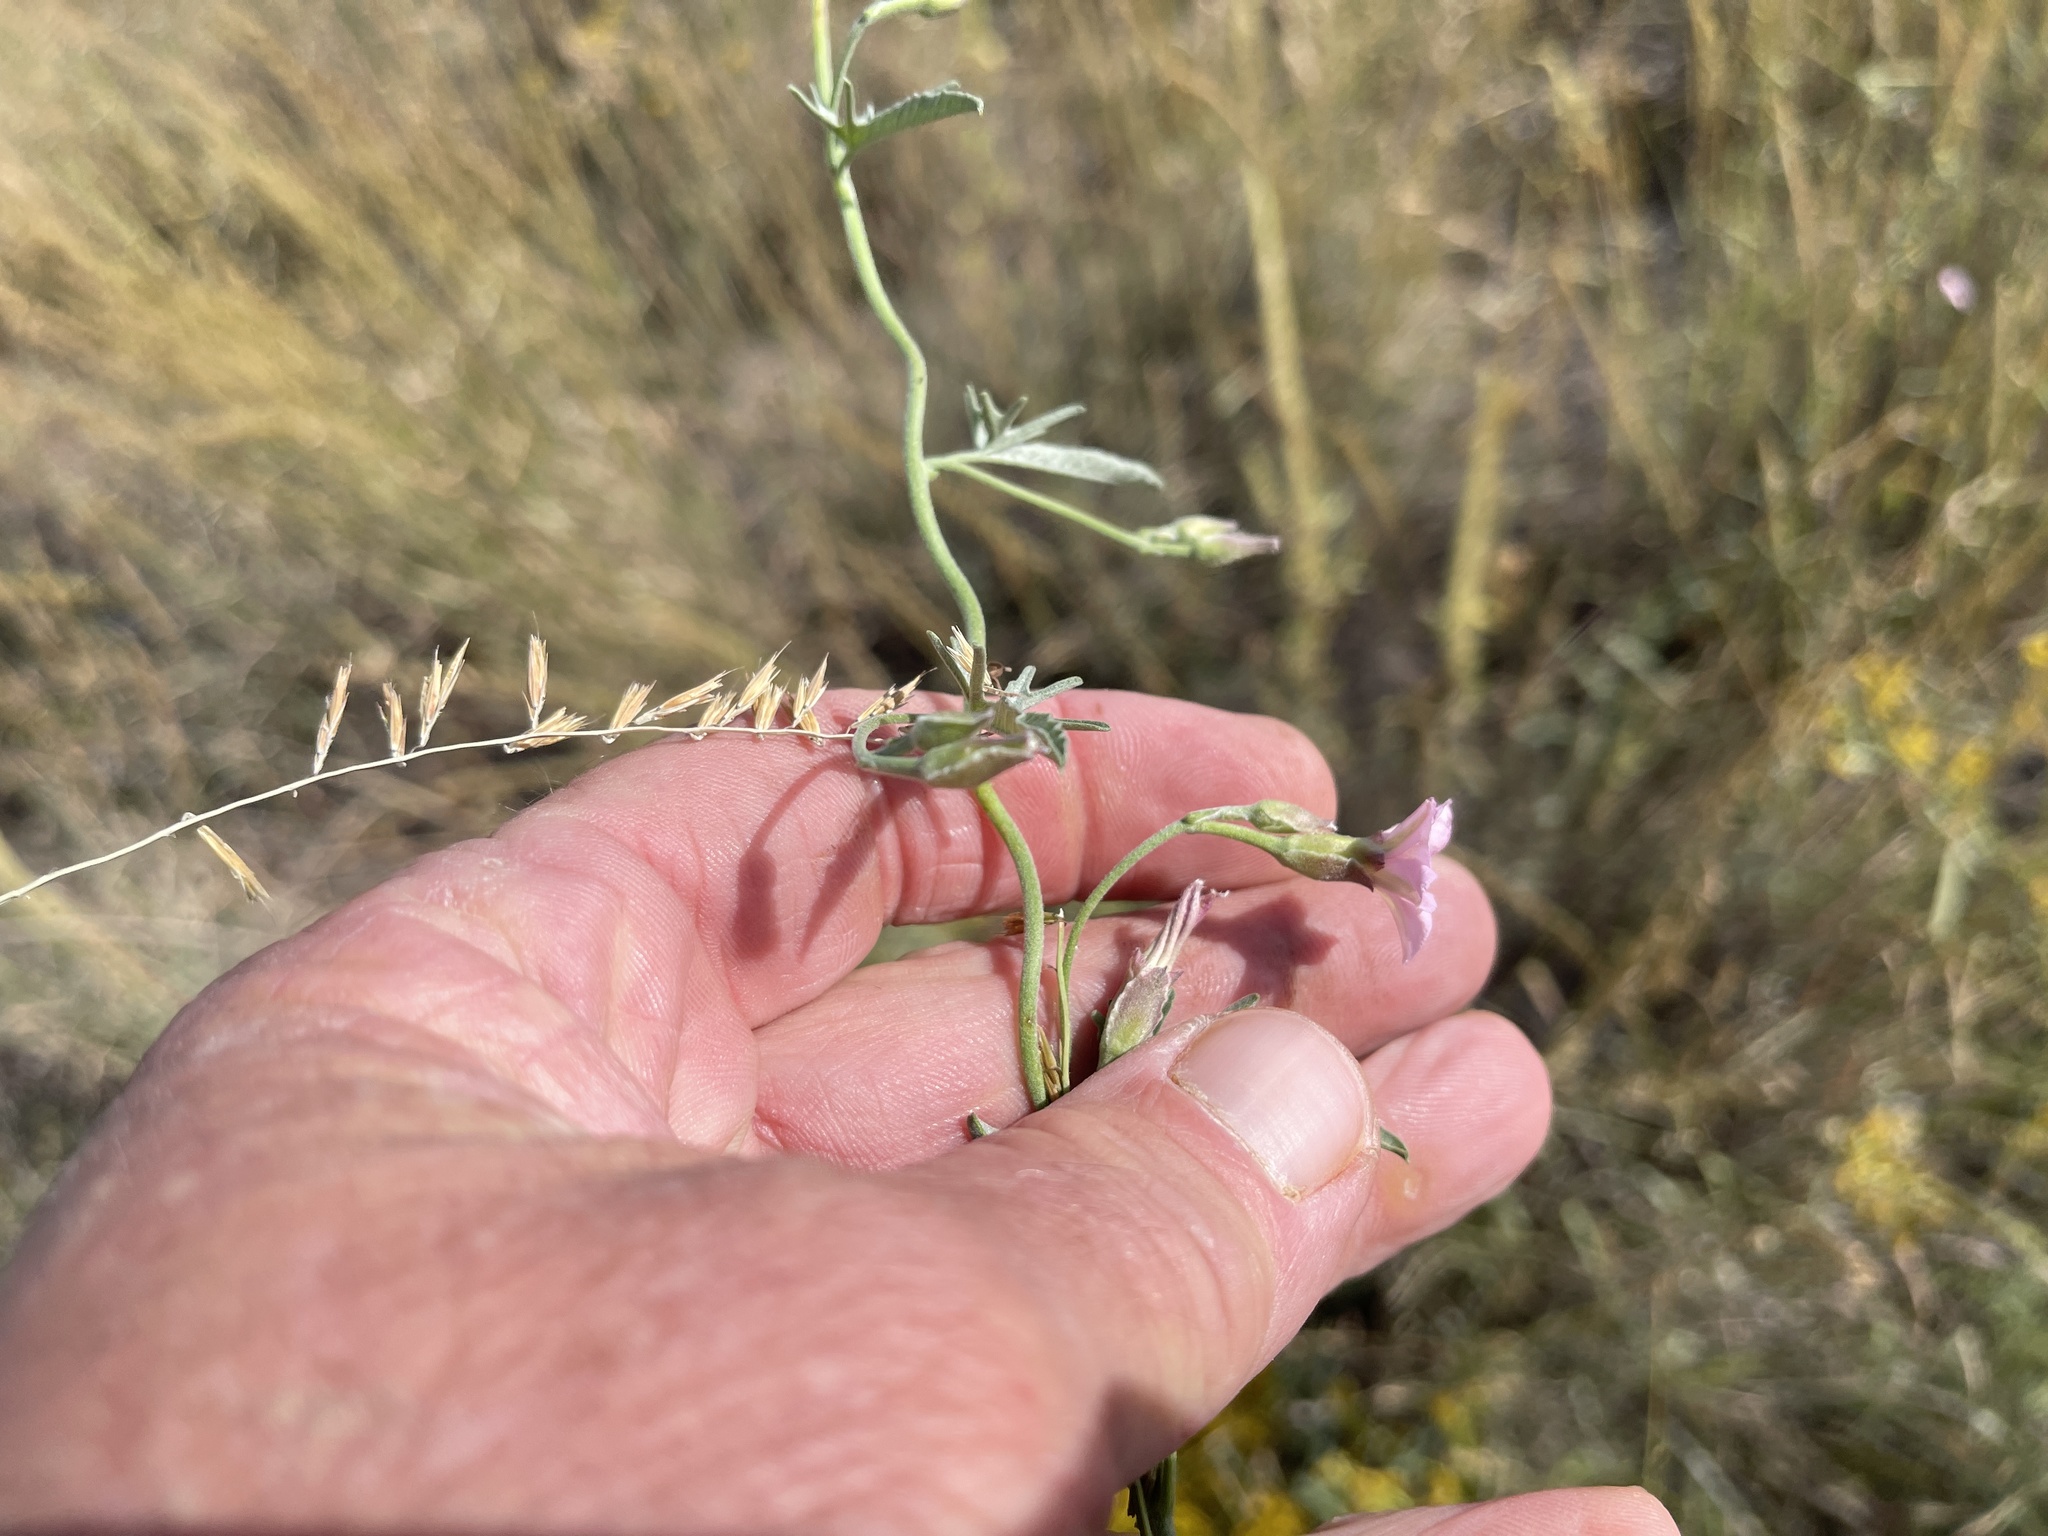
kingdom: Plantae
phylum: Tracheophyta
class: Magnoliopsida
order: Solanales
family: Convolvulaceae
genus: Convolvulus
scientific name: Convolvulus equitans
